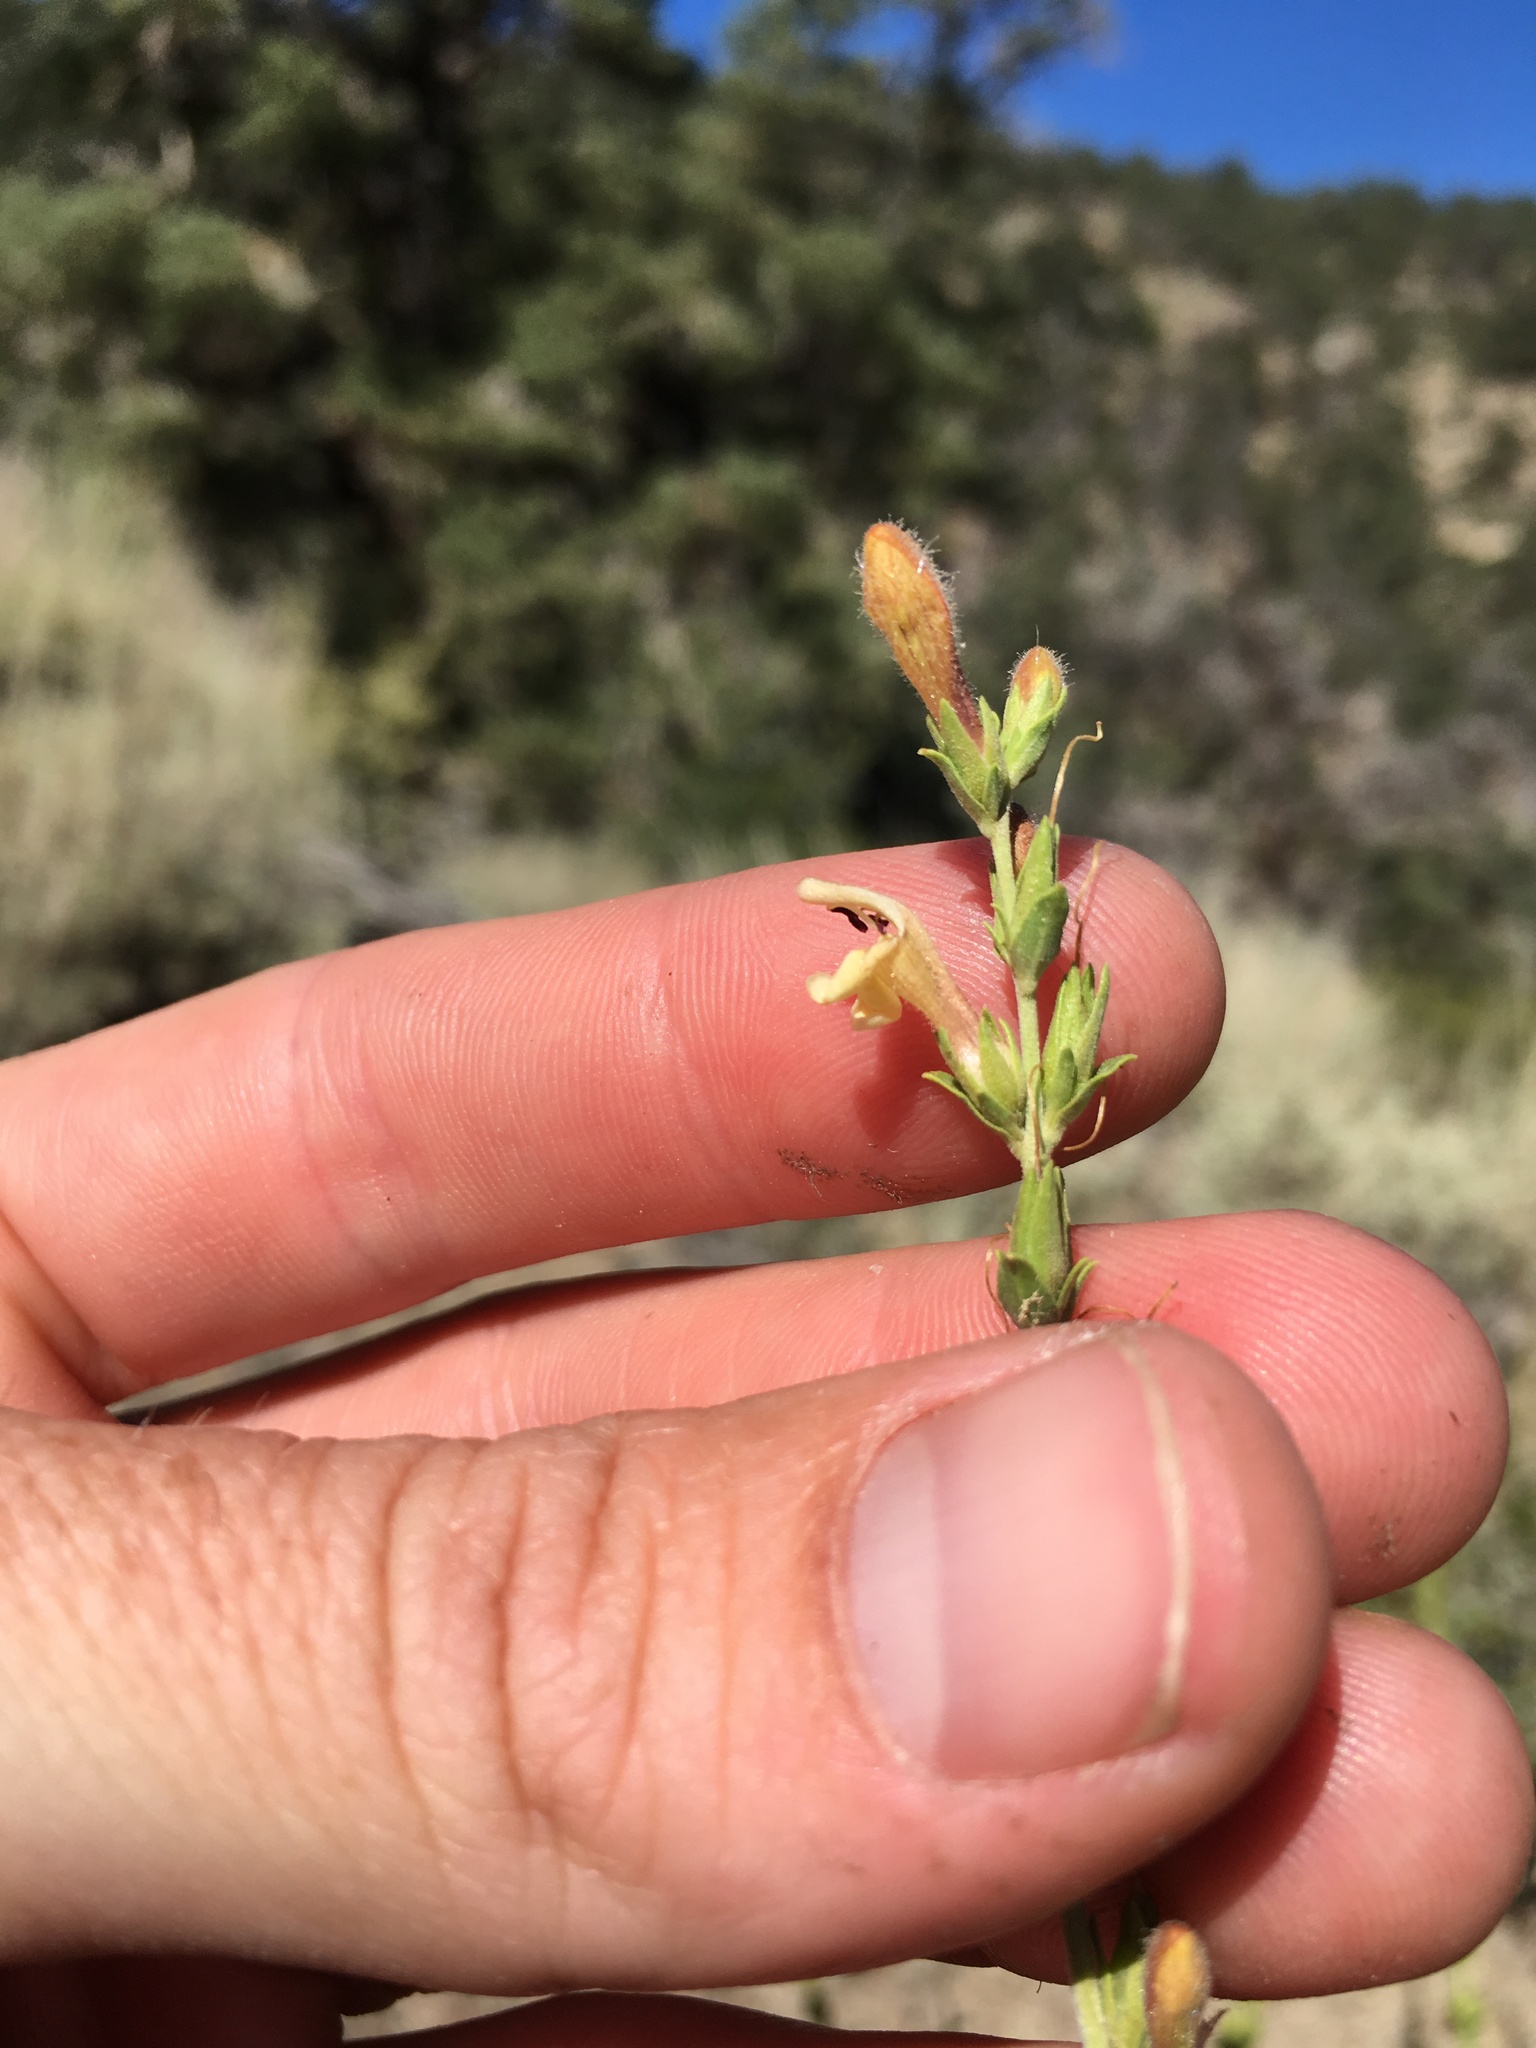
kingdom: Plantae
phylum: Tracheophyta
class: Magnoliopsida
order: Lamiales
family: Plantaginaceae
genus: Keckiella
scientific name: Keckiella rothrockii
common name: Rothrock's keckiella
